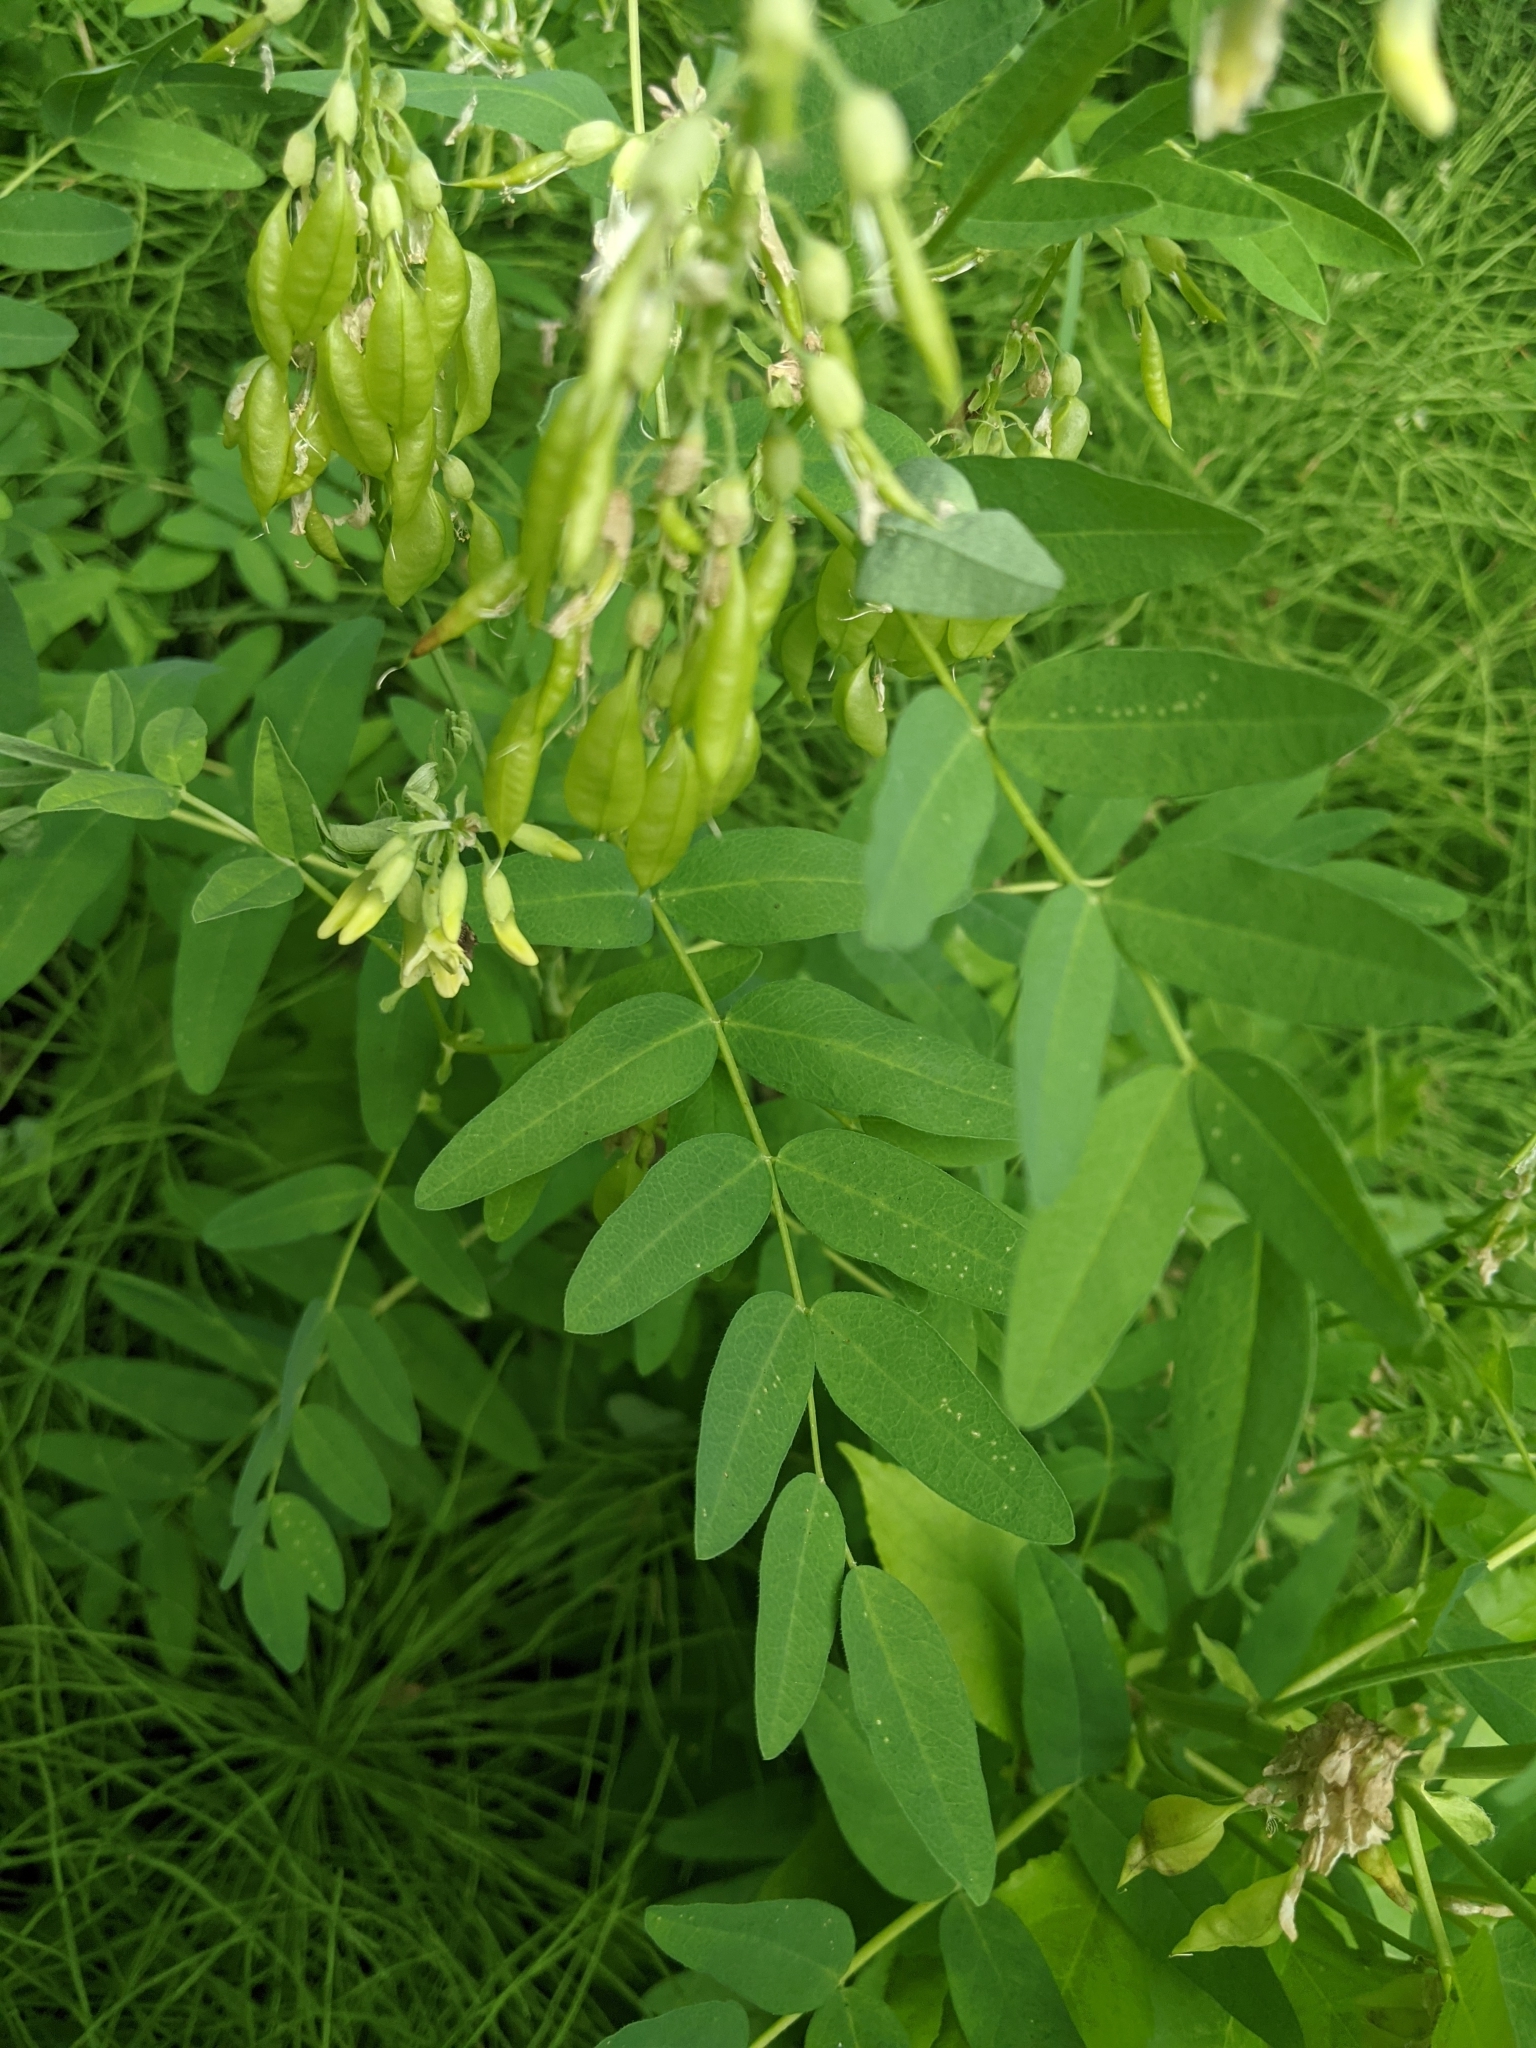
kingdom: Plantae
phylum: Tracheophyta
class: Magnoliopsida
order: Fabales
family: Fabaceae
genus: Astragalus
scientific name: Astragalus americanus
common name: American milk-vetch
